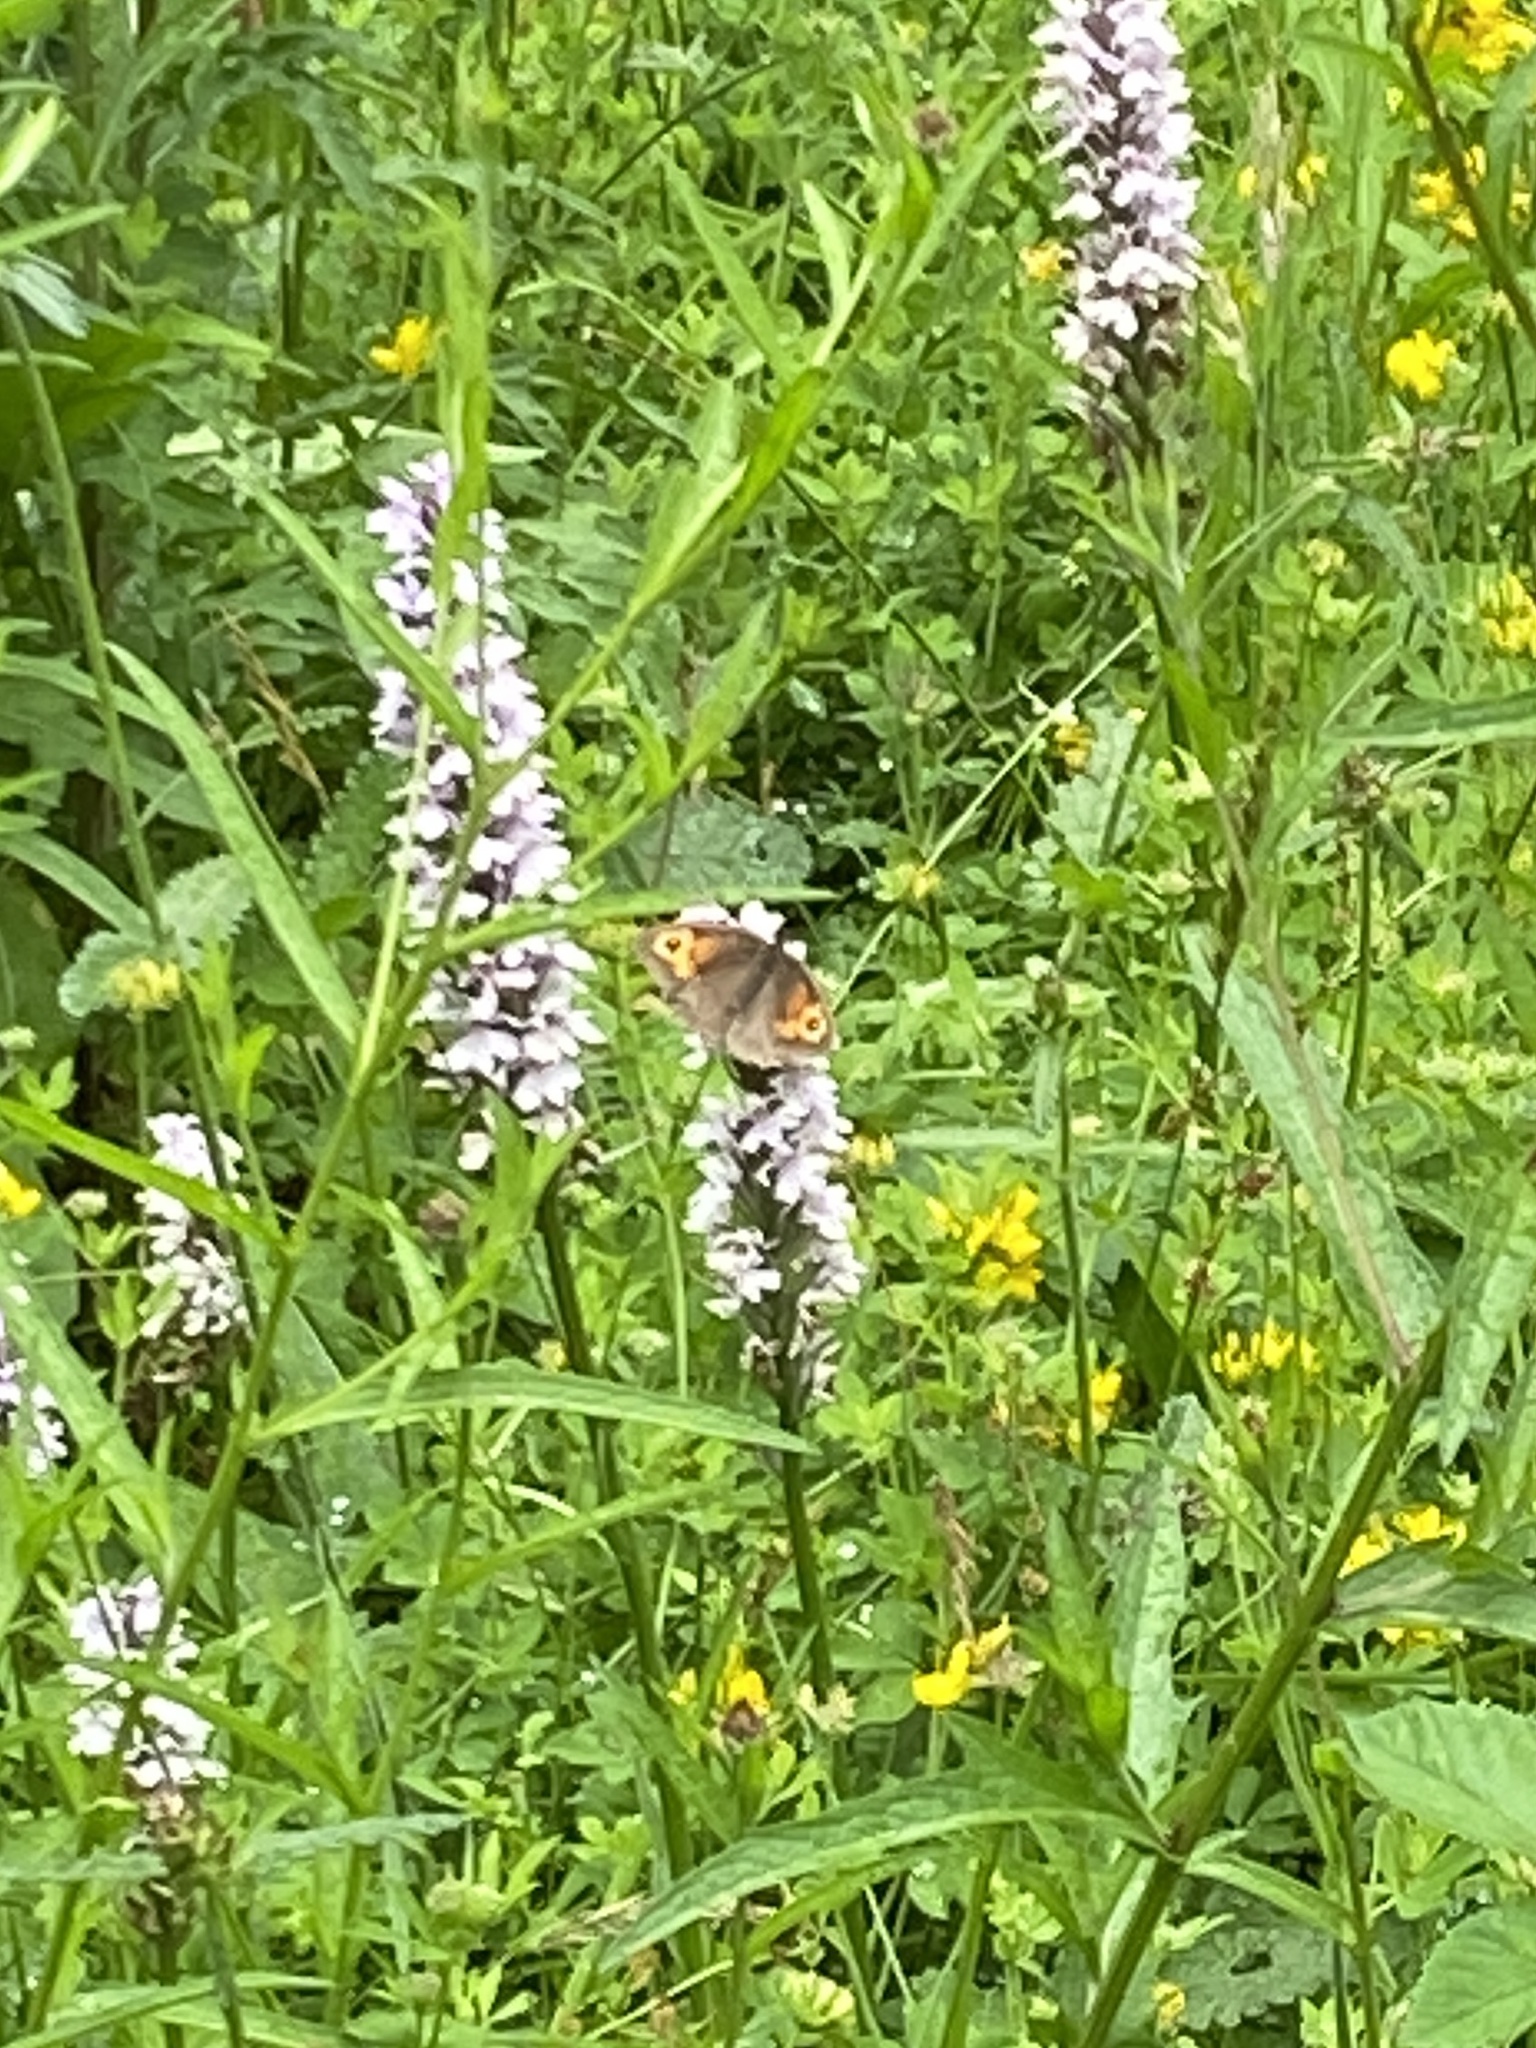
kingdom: Animalia
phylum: Arthropoda
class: Insecta
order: Lepidoptera
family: Nymphalidae
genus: Maniola
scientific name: Maniola jurtina
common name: Meadow brown
